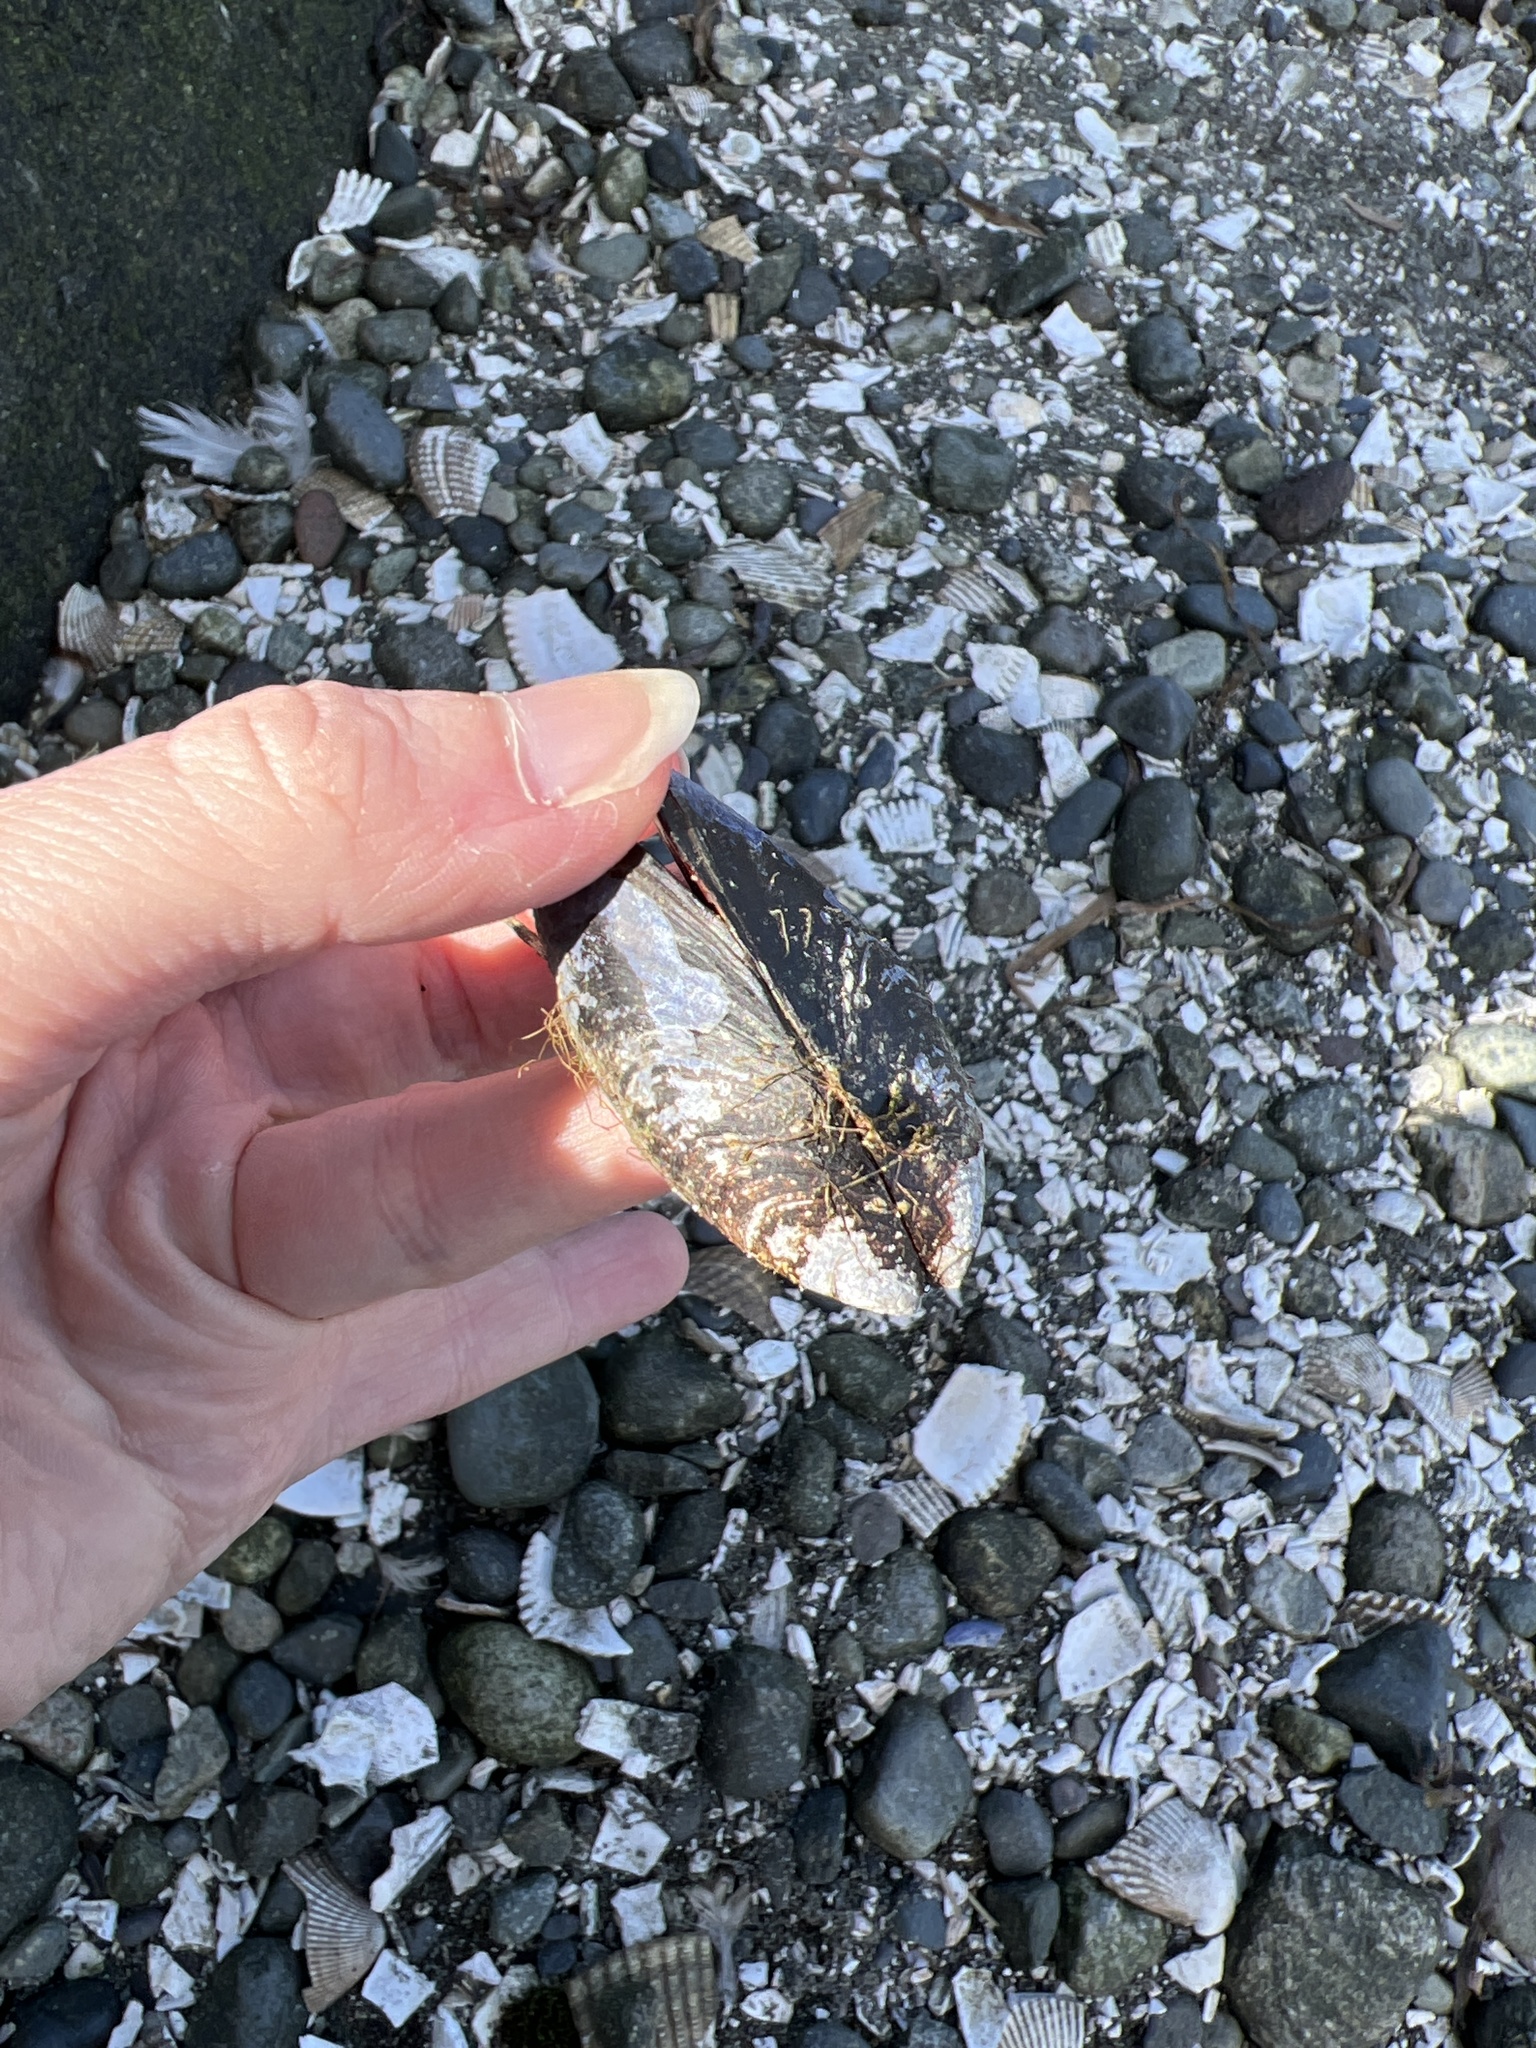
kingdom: Animalia
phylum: Mollusca
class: Bivalvia
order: Mytilida
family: Mytilidae
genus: Mytilus
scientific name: Mytilus
